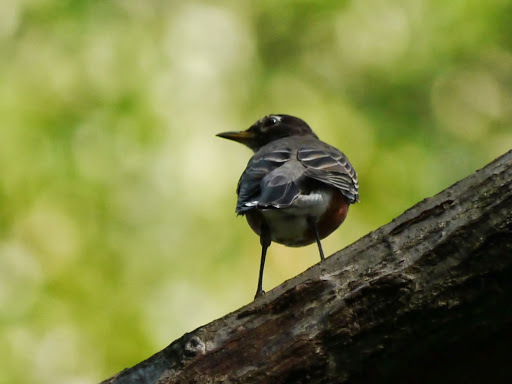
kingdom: Animalia
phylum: Chordata
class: Aves
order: Passeriformes
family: Turdidae
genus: Turdus
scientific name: Turdus migratorius
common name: American robin
